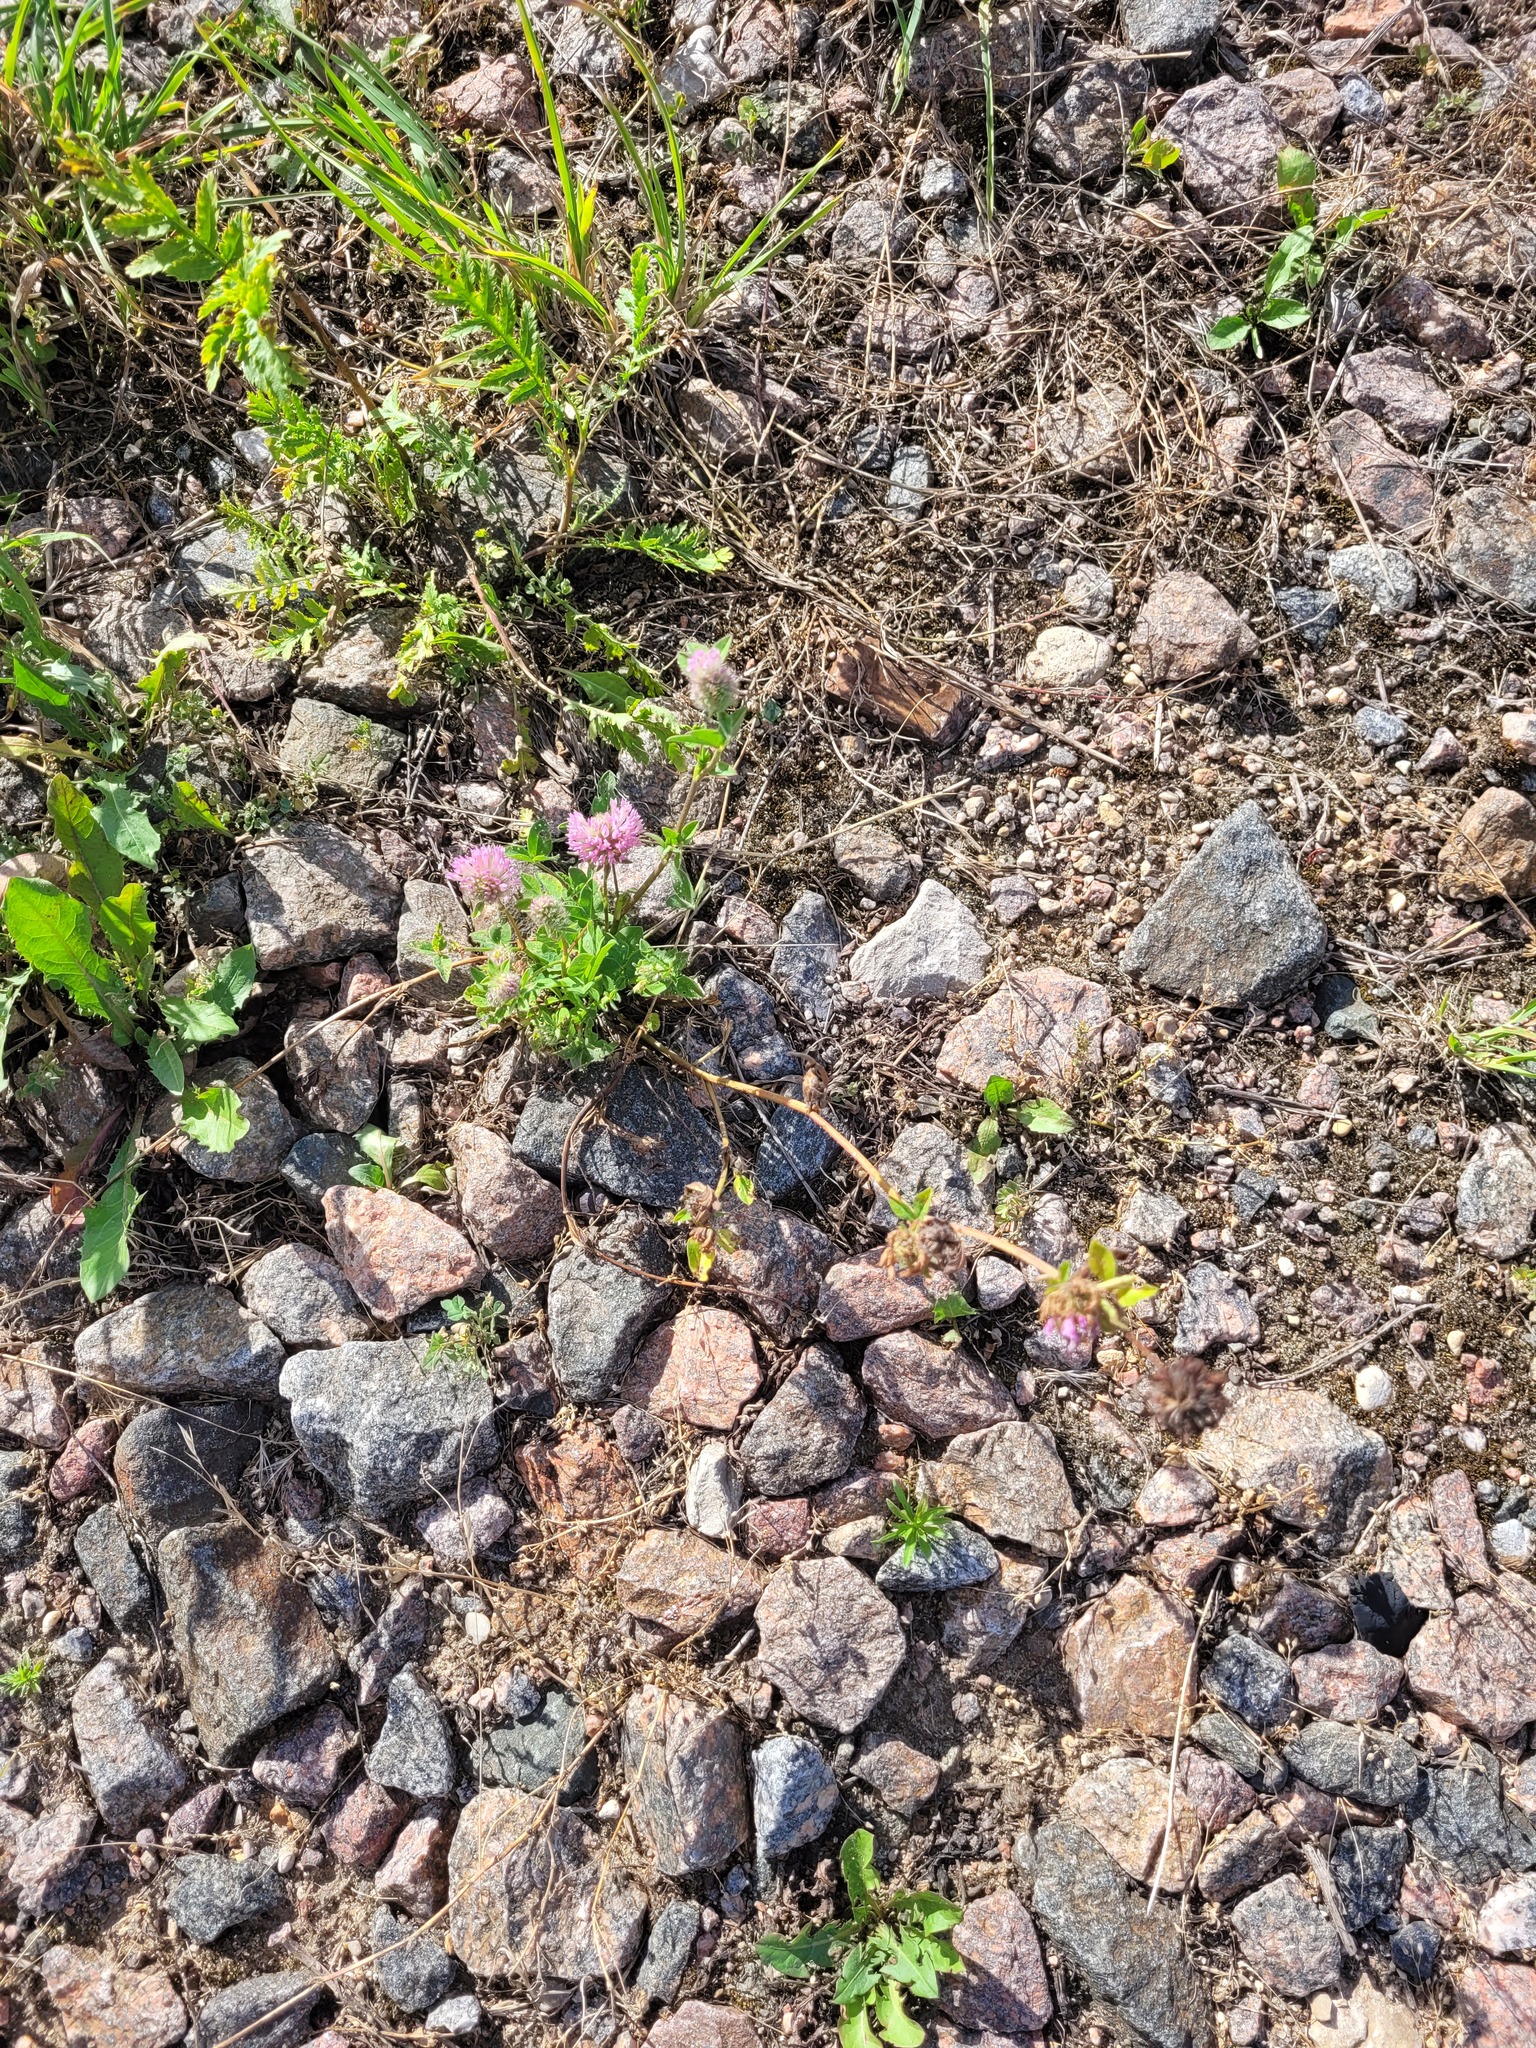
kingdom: Plantae
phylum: Tracheophyta
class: Magnoliopsida
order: Fabales
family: Fabaceae
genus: Trifolium
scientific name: Trifolium pratense
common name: Red clover
